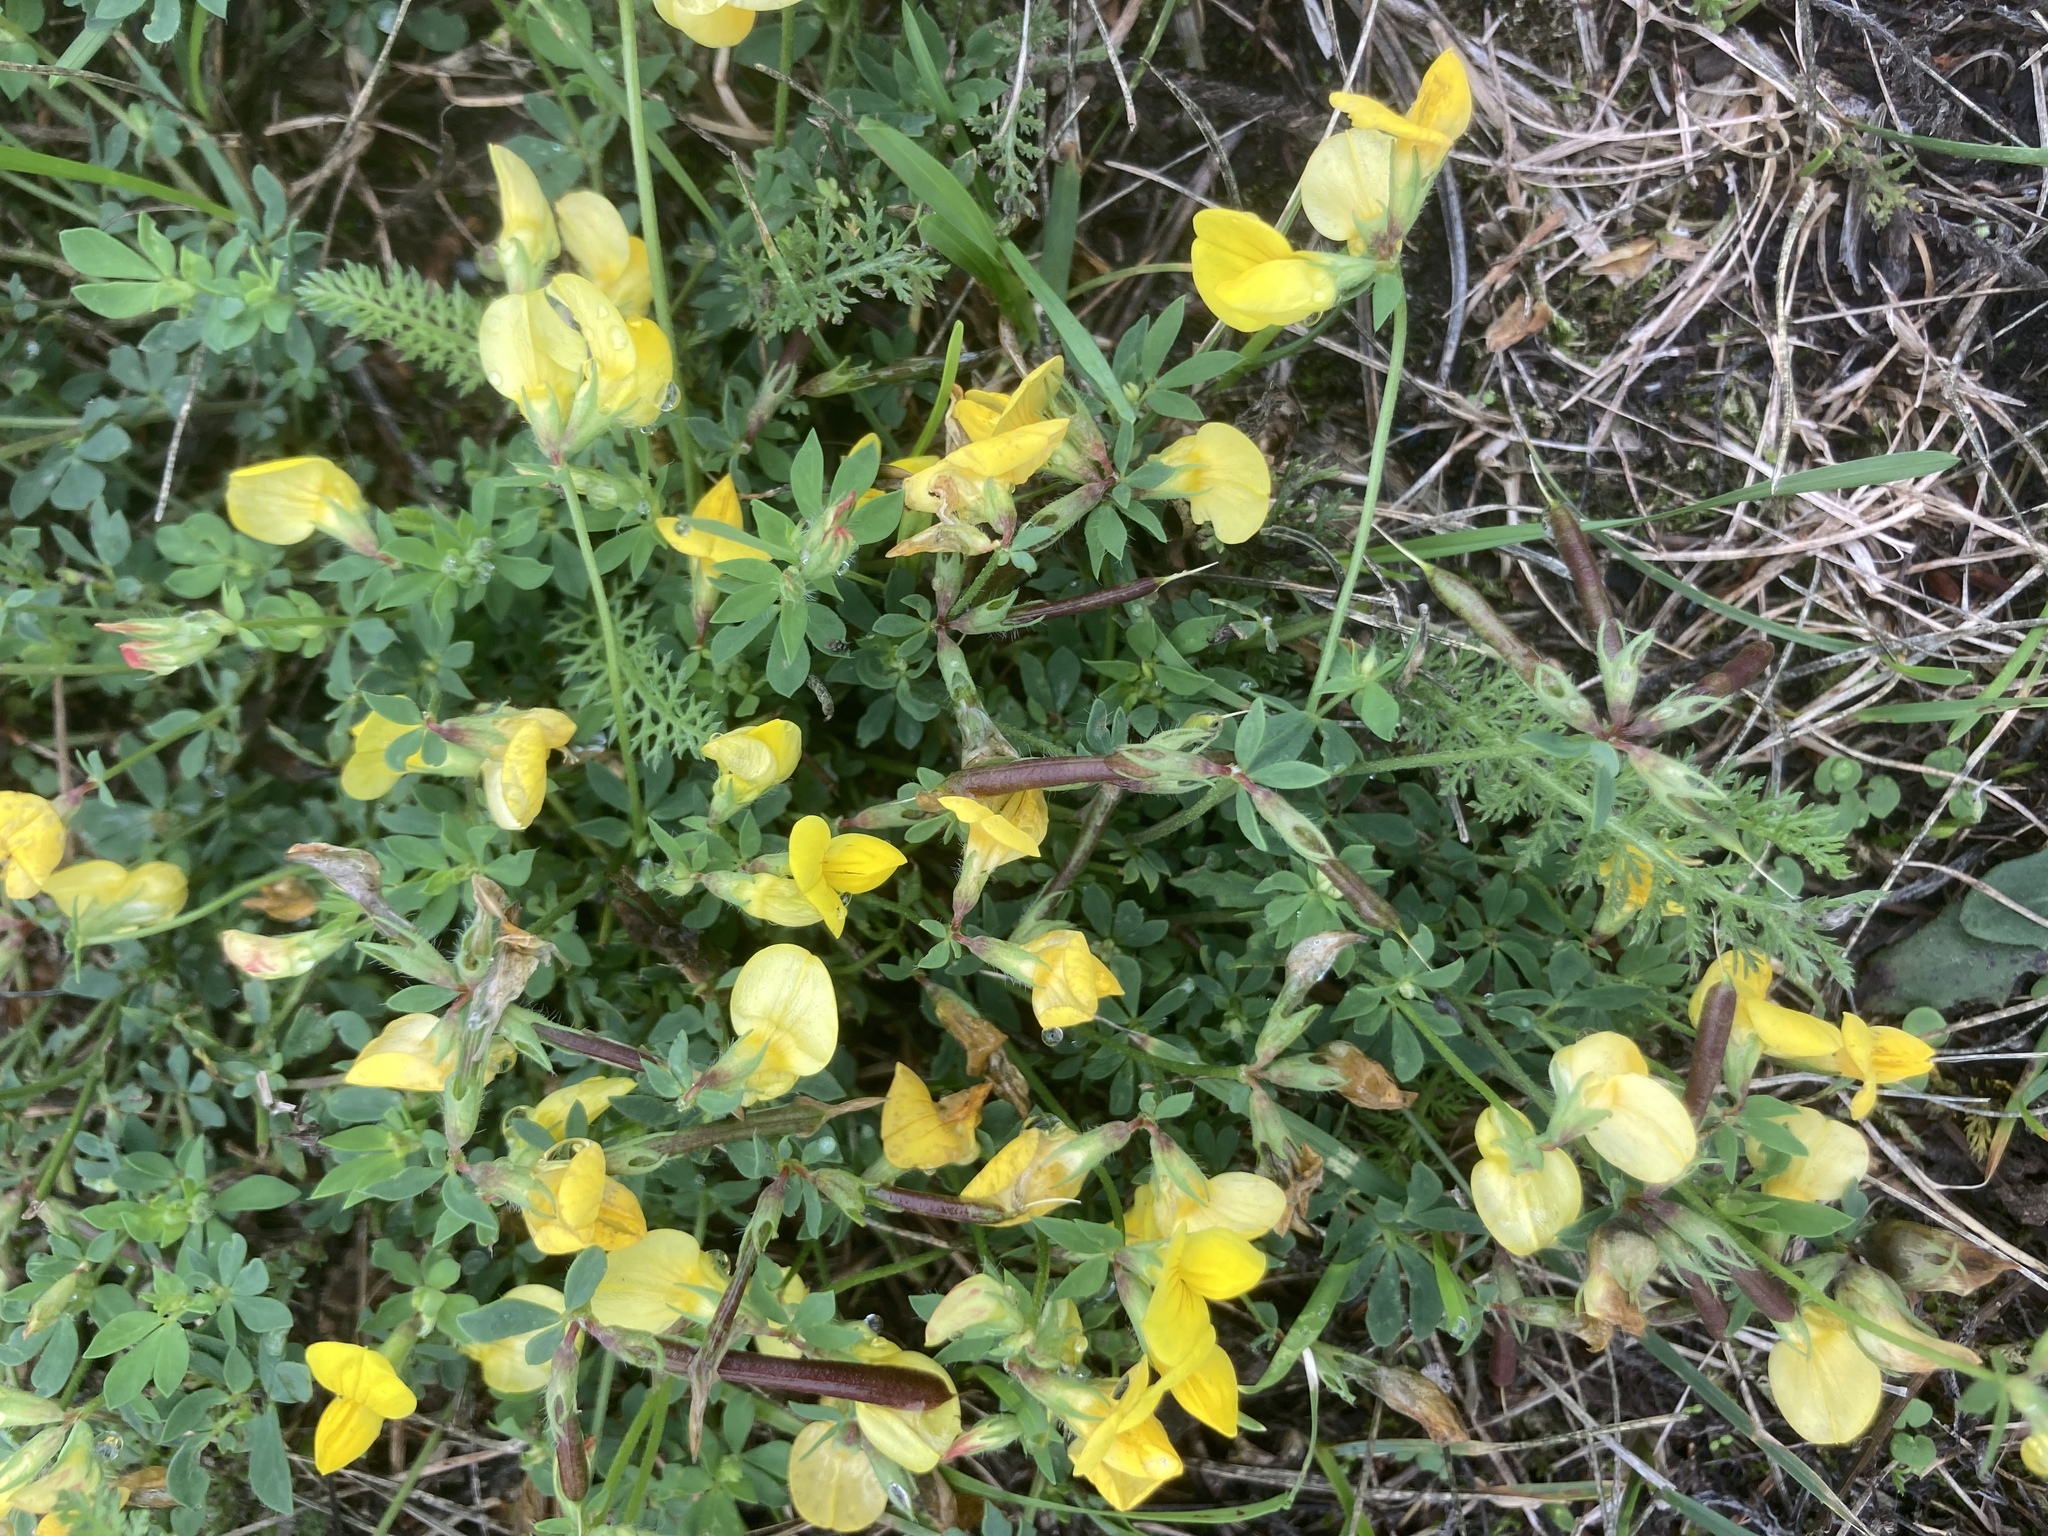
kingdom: Plantae
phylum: Tracheophyta
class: Magnoliopsida
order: Fabales
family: Fabaceae
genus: Lotus
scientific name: Lotus corniculatus
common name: Common bird's-foot-trefoil
